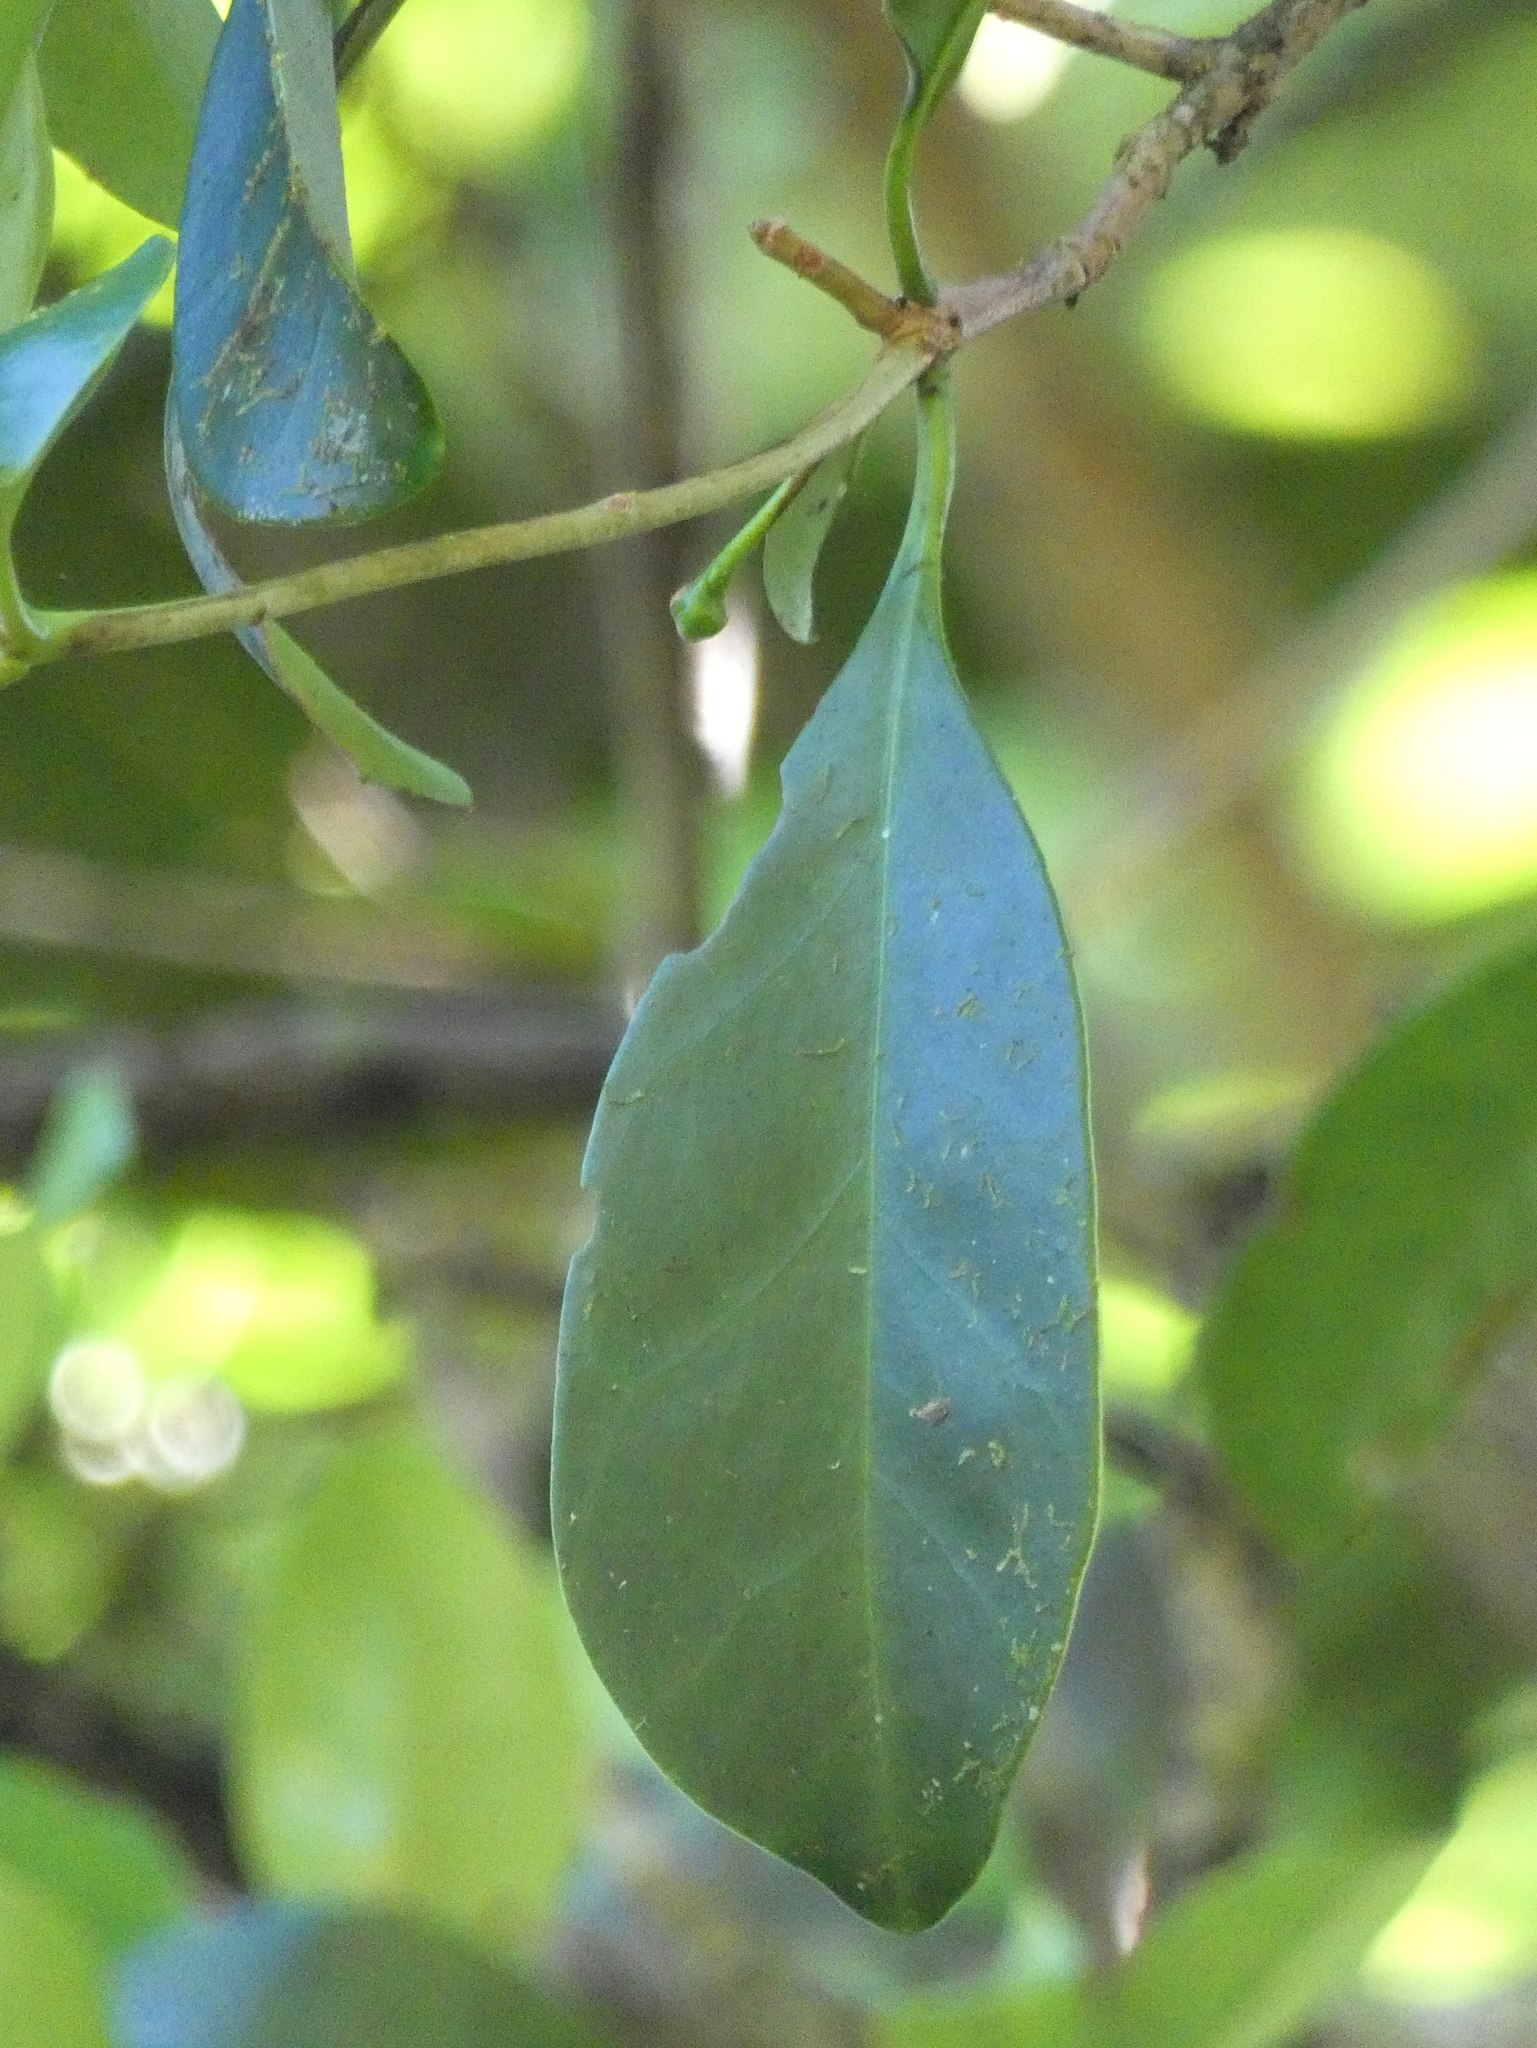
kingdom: Plantae
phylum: Tracheophyta
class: Magnoliopsida
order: Ericales
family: Pentaphylacaceae
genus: Ternstroemia
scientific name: Ternstroemia cherryi
